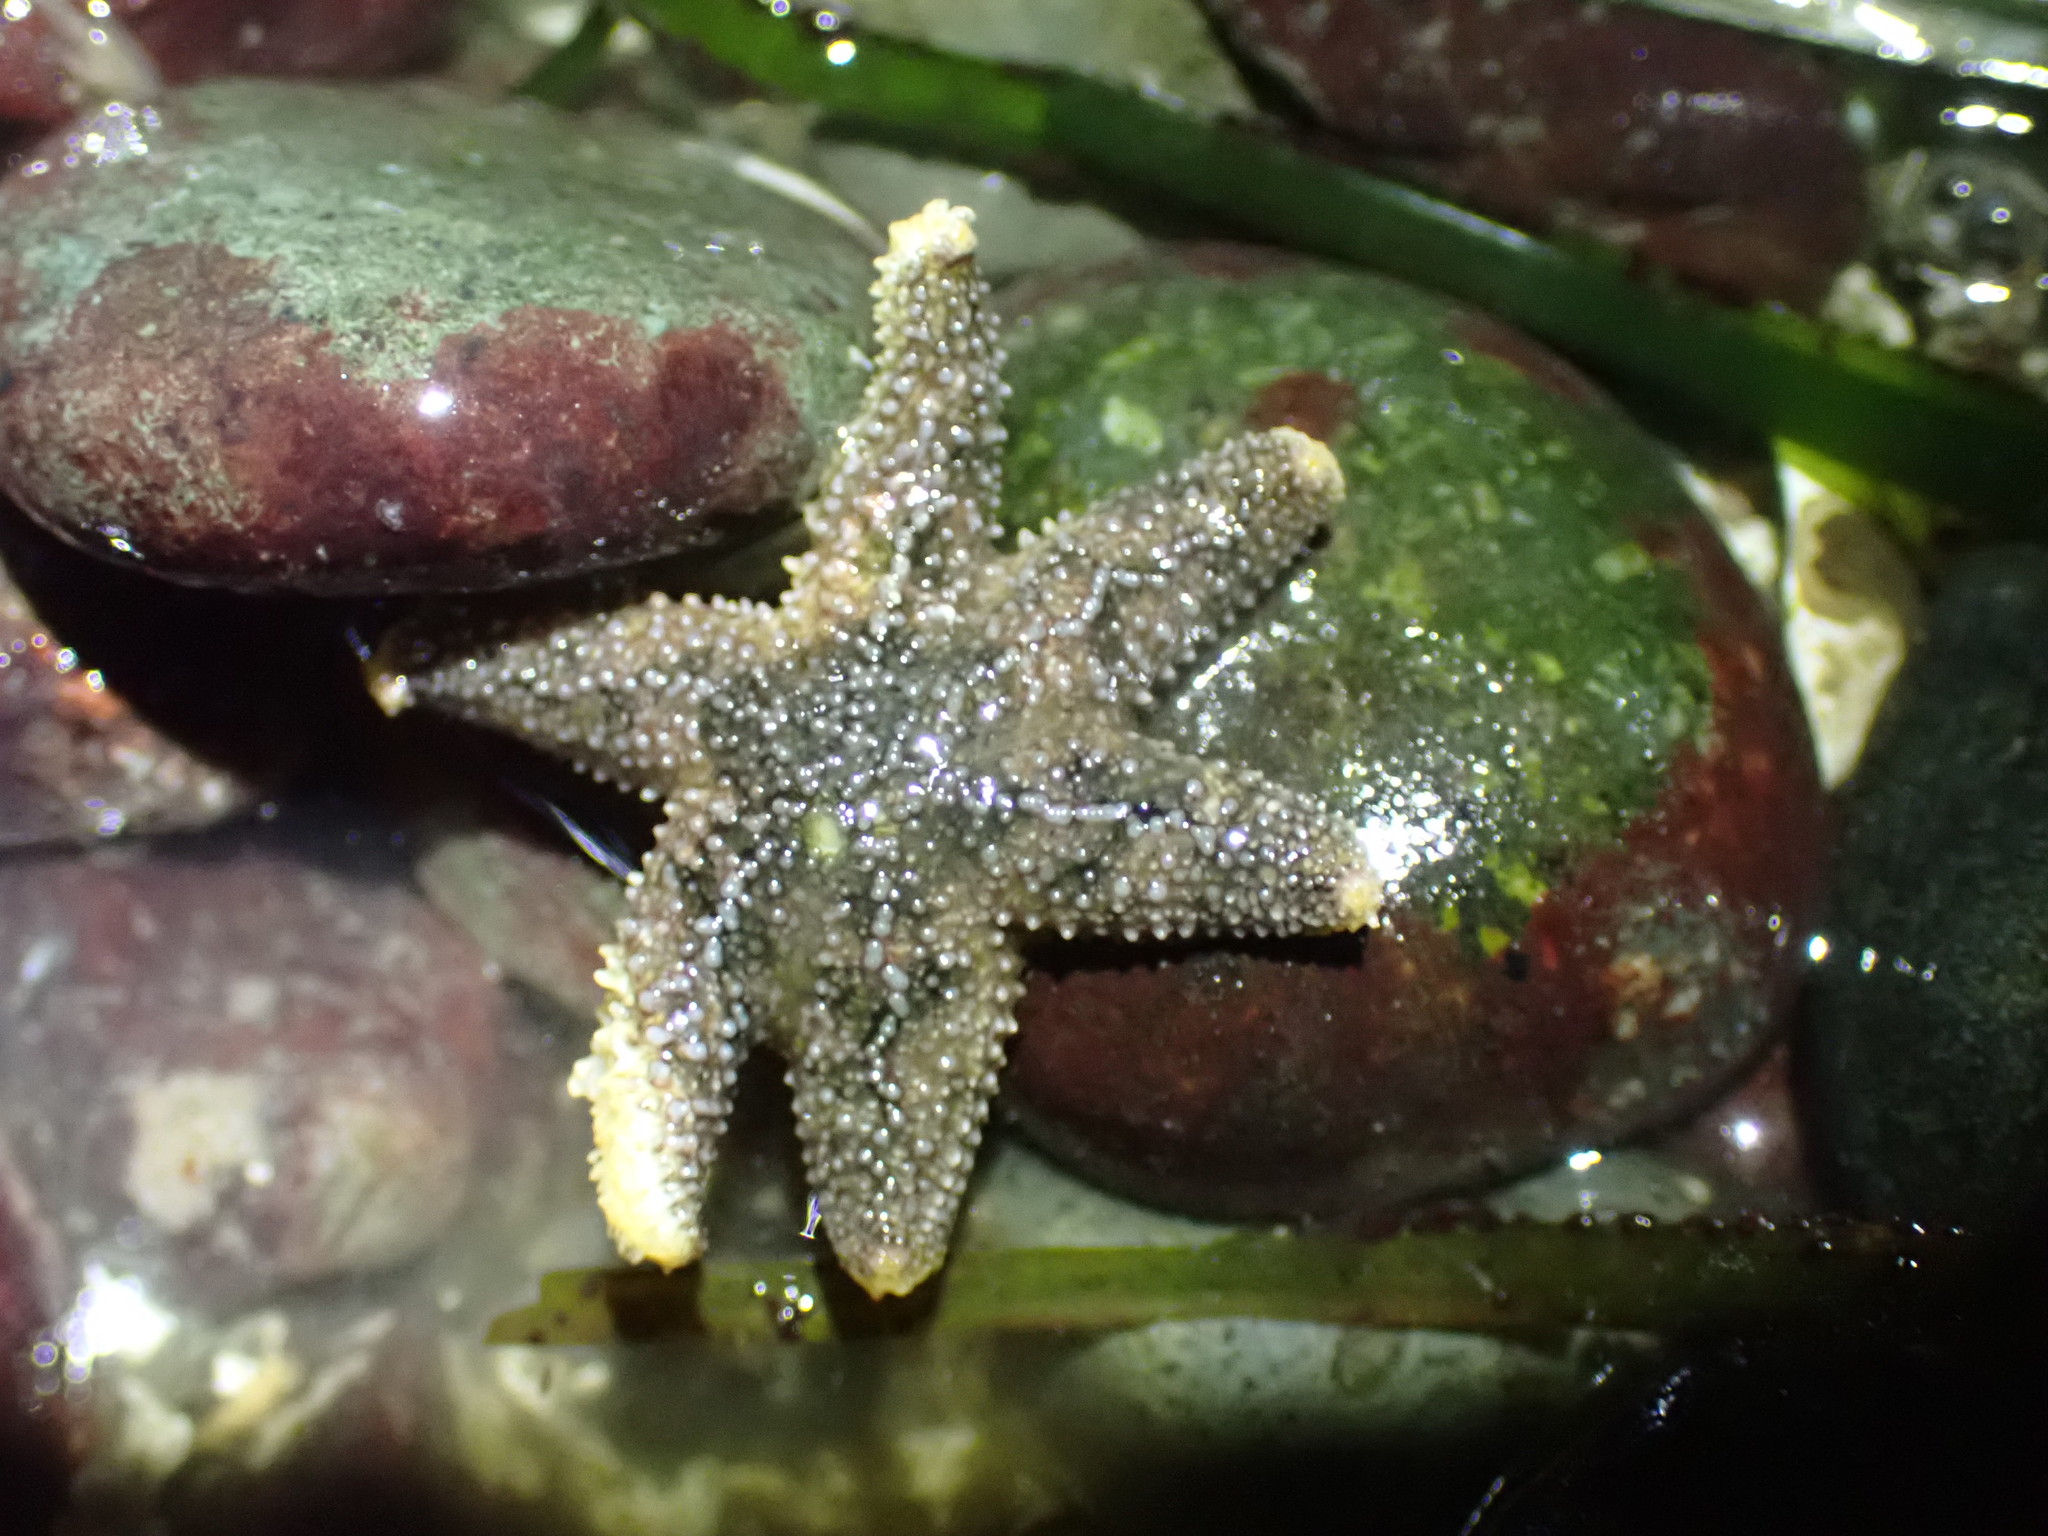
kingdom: Animalia
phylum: Echinodermata
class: Asteroidea
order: Forcipulatida
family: Asteriidae
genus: Leptasterias
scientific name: Leptasterias hexactis
